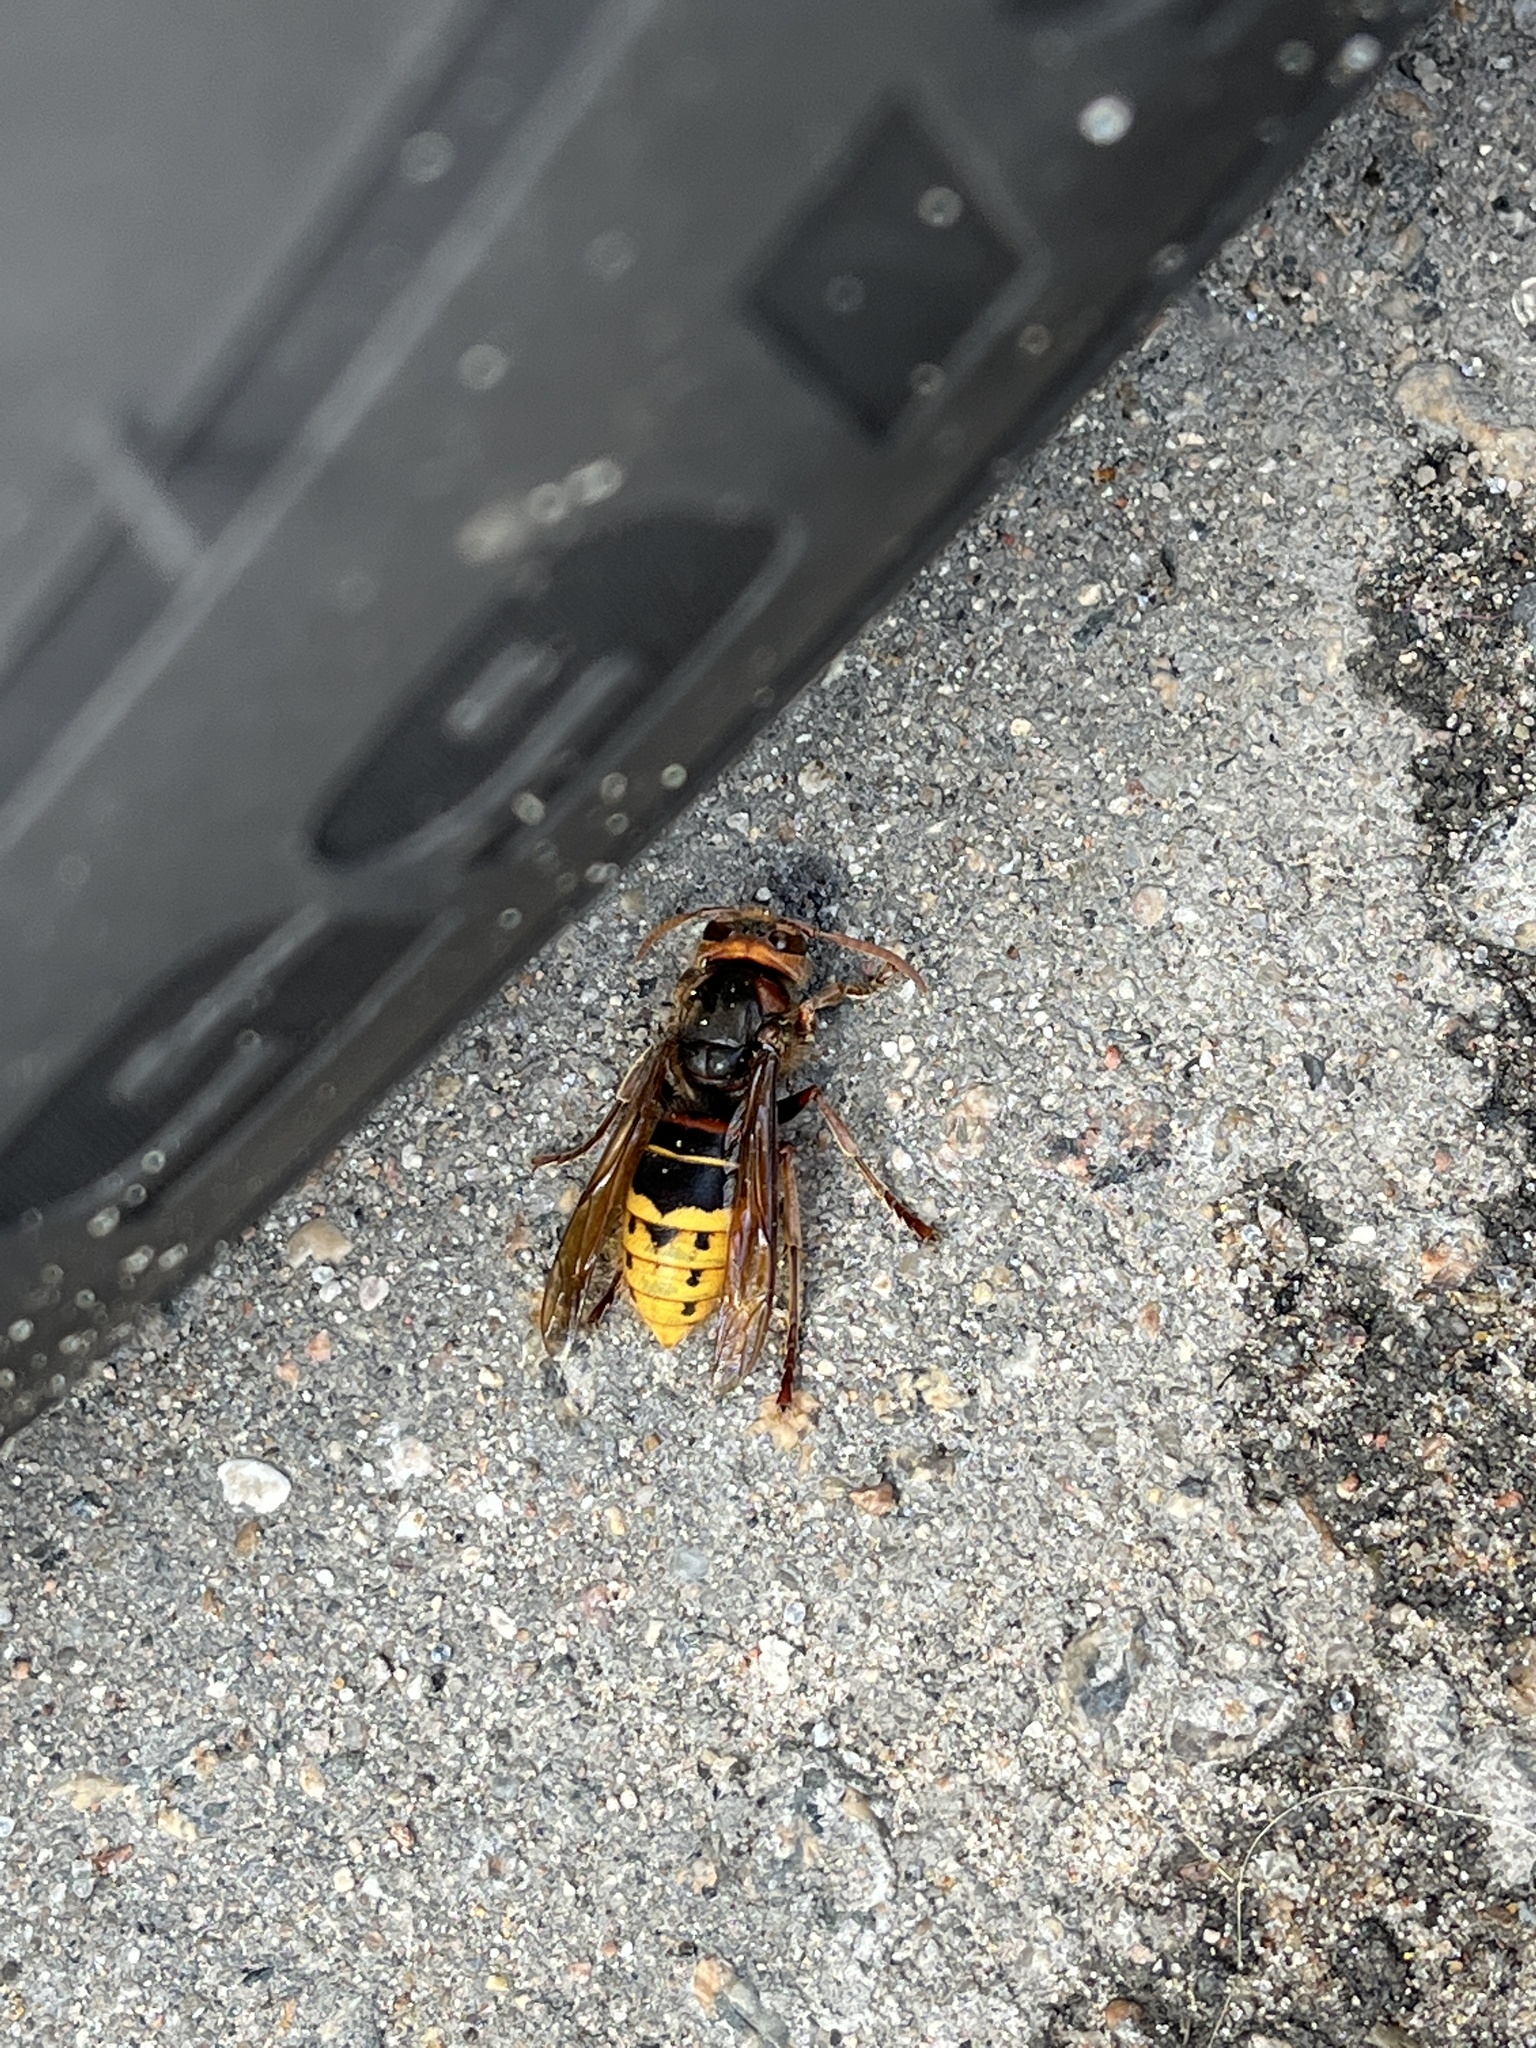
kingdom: Animalia
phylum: Arthropoda
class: Insecta
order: Hymenoptera
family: Vespidae
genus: Vespa
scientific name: Vespa crabro
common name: Hornet
